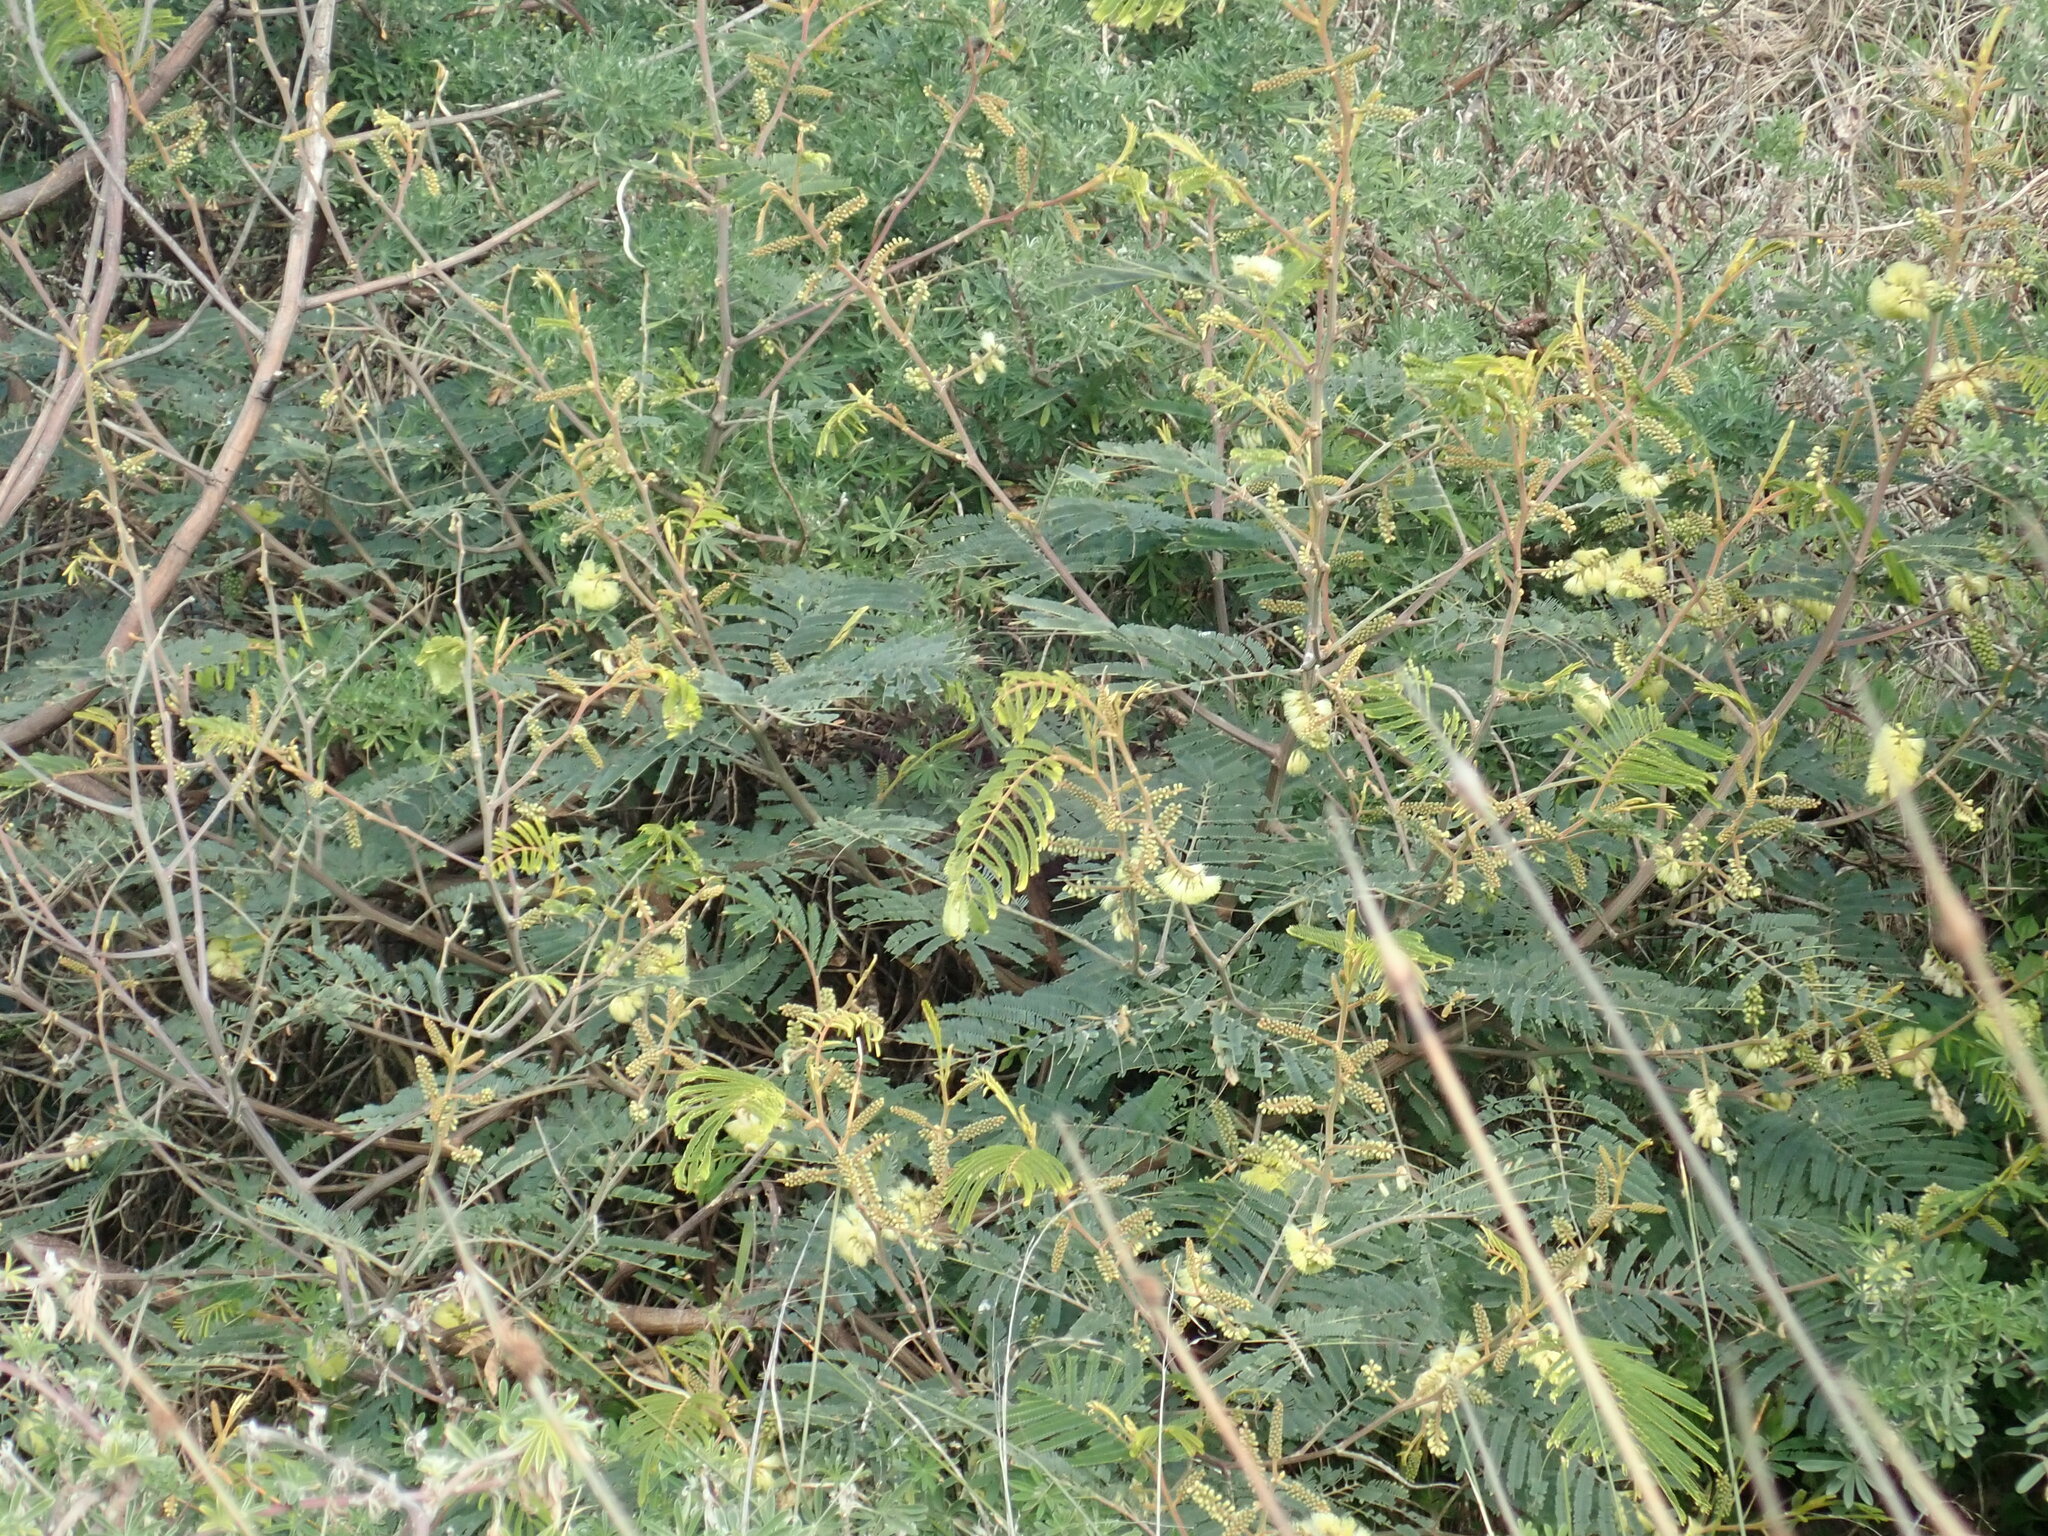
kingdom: Plantae
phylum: Tracheophyta
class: Magnoliopsida
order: Fabales
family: Fabaceae
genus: Paraserianthes
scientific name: Paraserianthes lophantha
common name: Plume albizia
